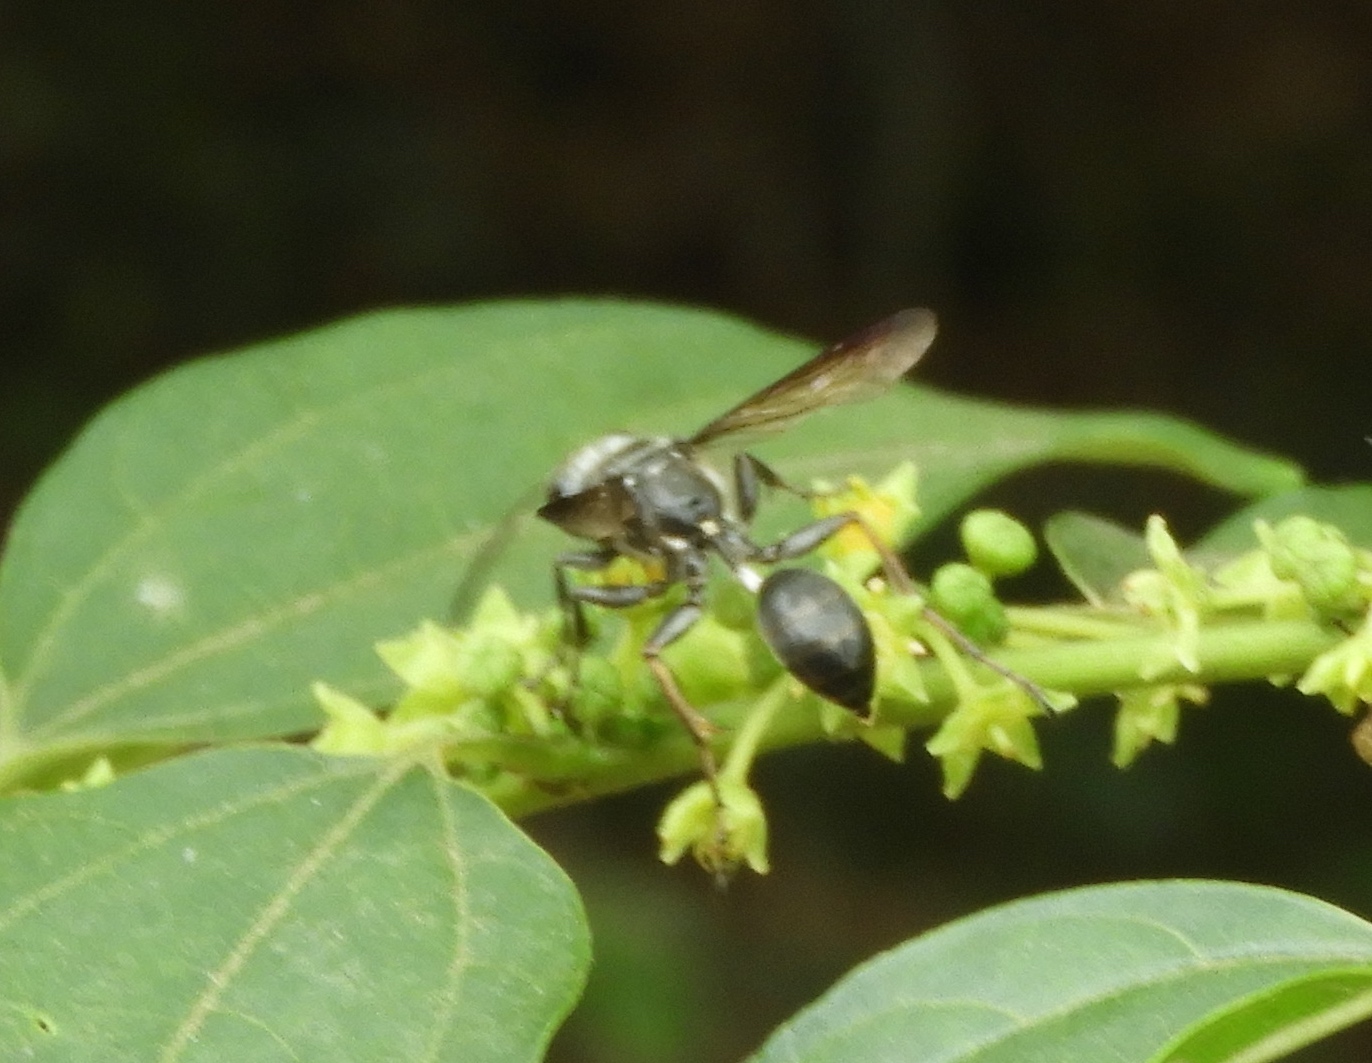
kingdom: Animalia
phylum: Arthropoda
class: Insecta
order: Hymenoptera
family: Sphecidae
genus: Isodontia
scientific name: Isodontia
